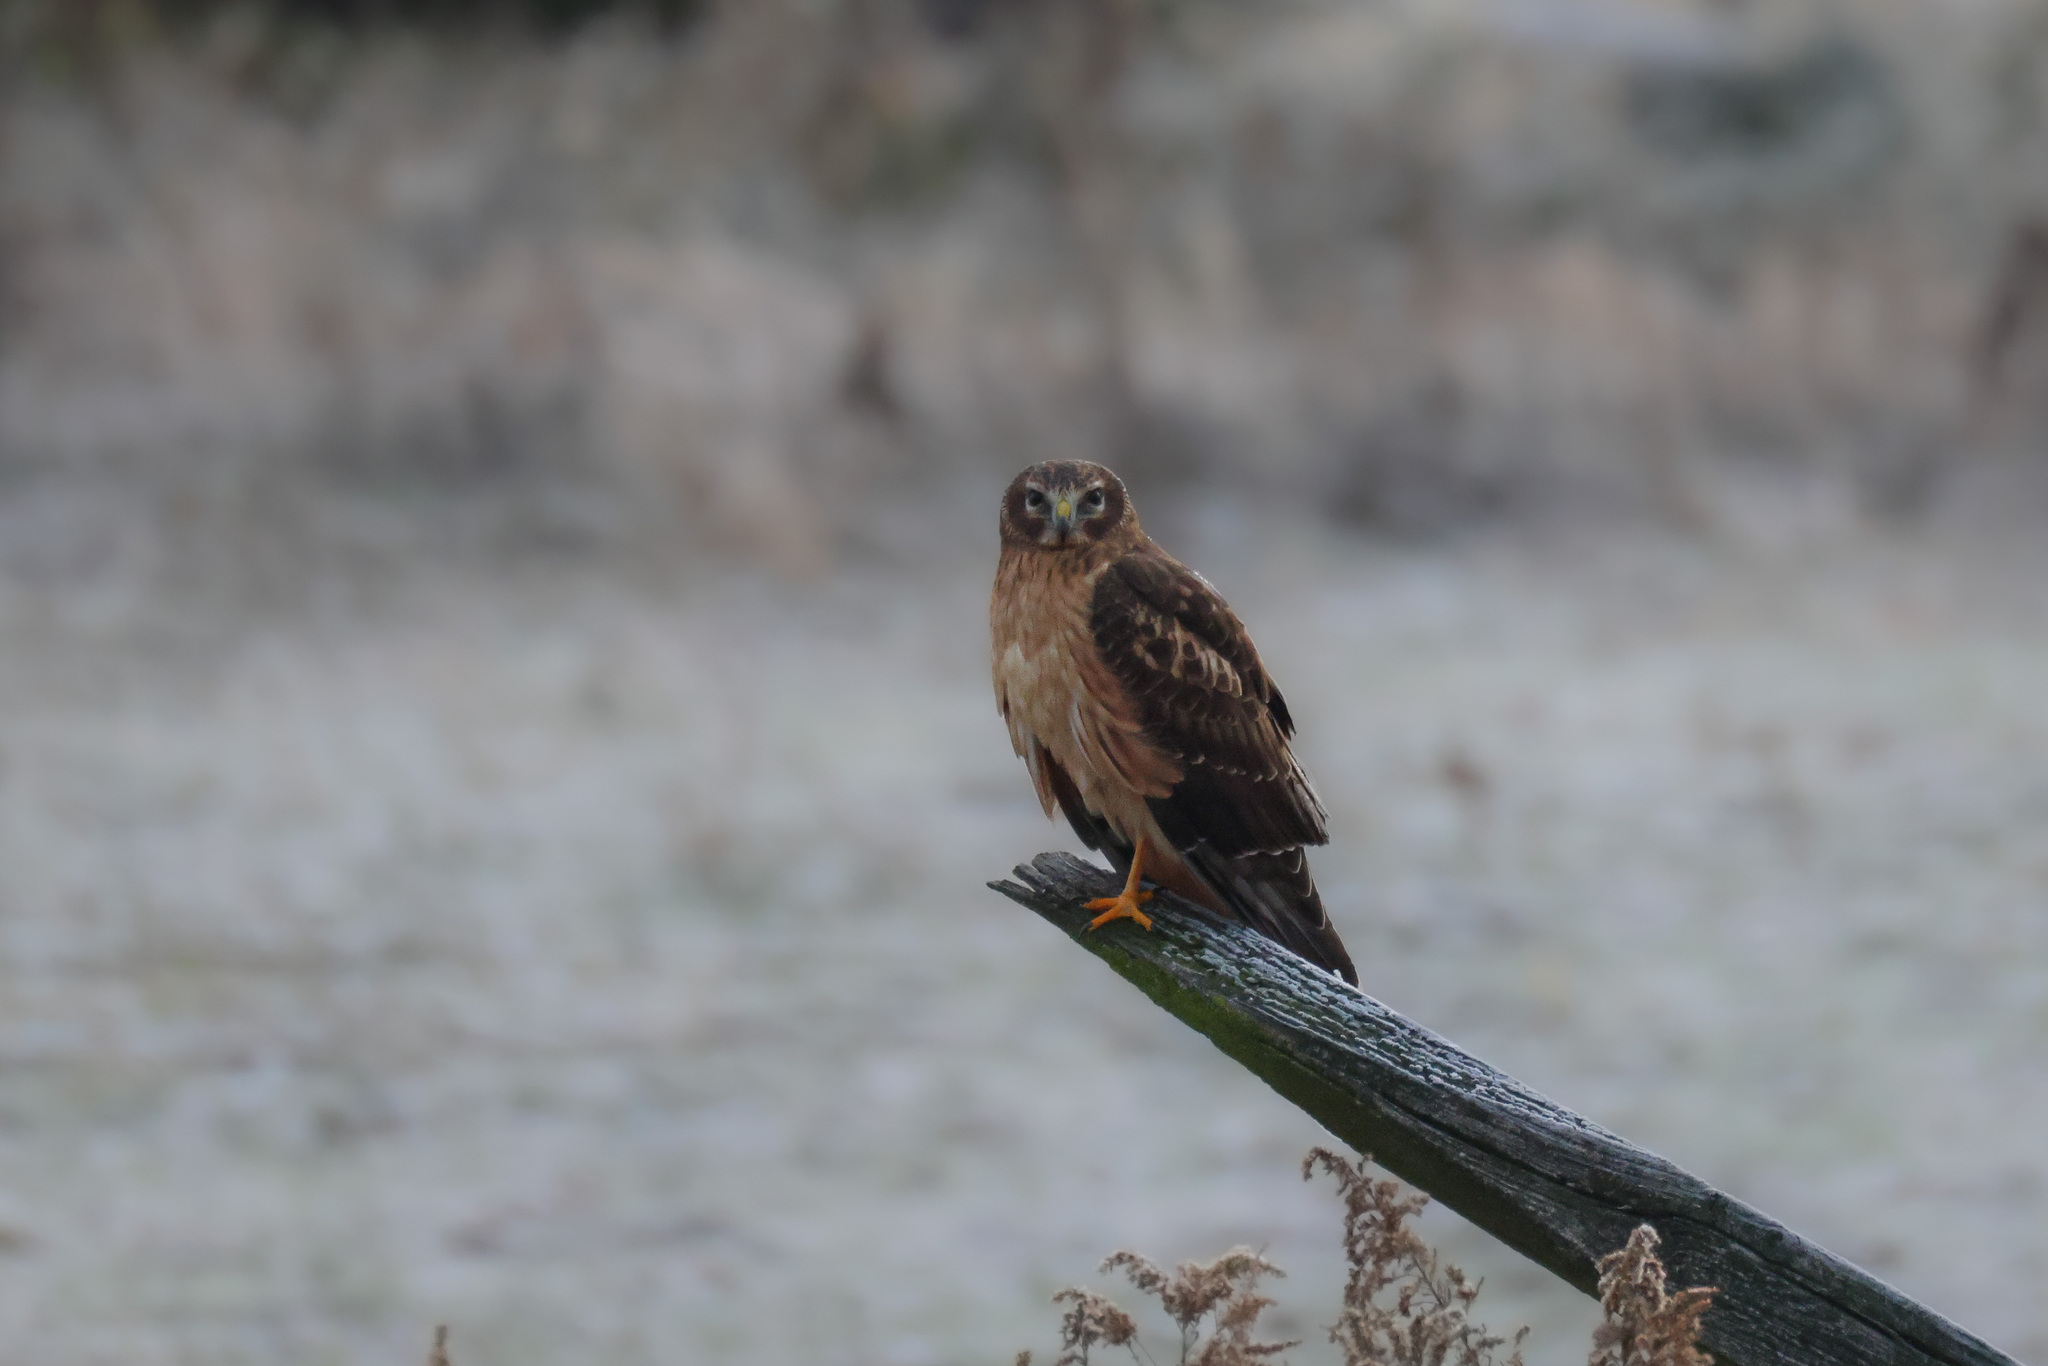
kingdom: Animalia
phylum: Chordata
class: Aves
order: Accipitriformes
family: Accipitridae
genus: Circus
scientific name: Circus cyaneus
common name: Hen harrier
